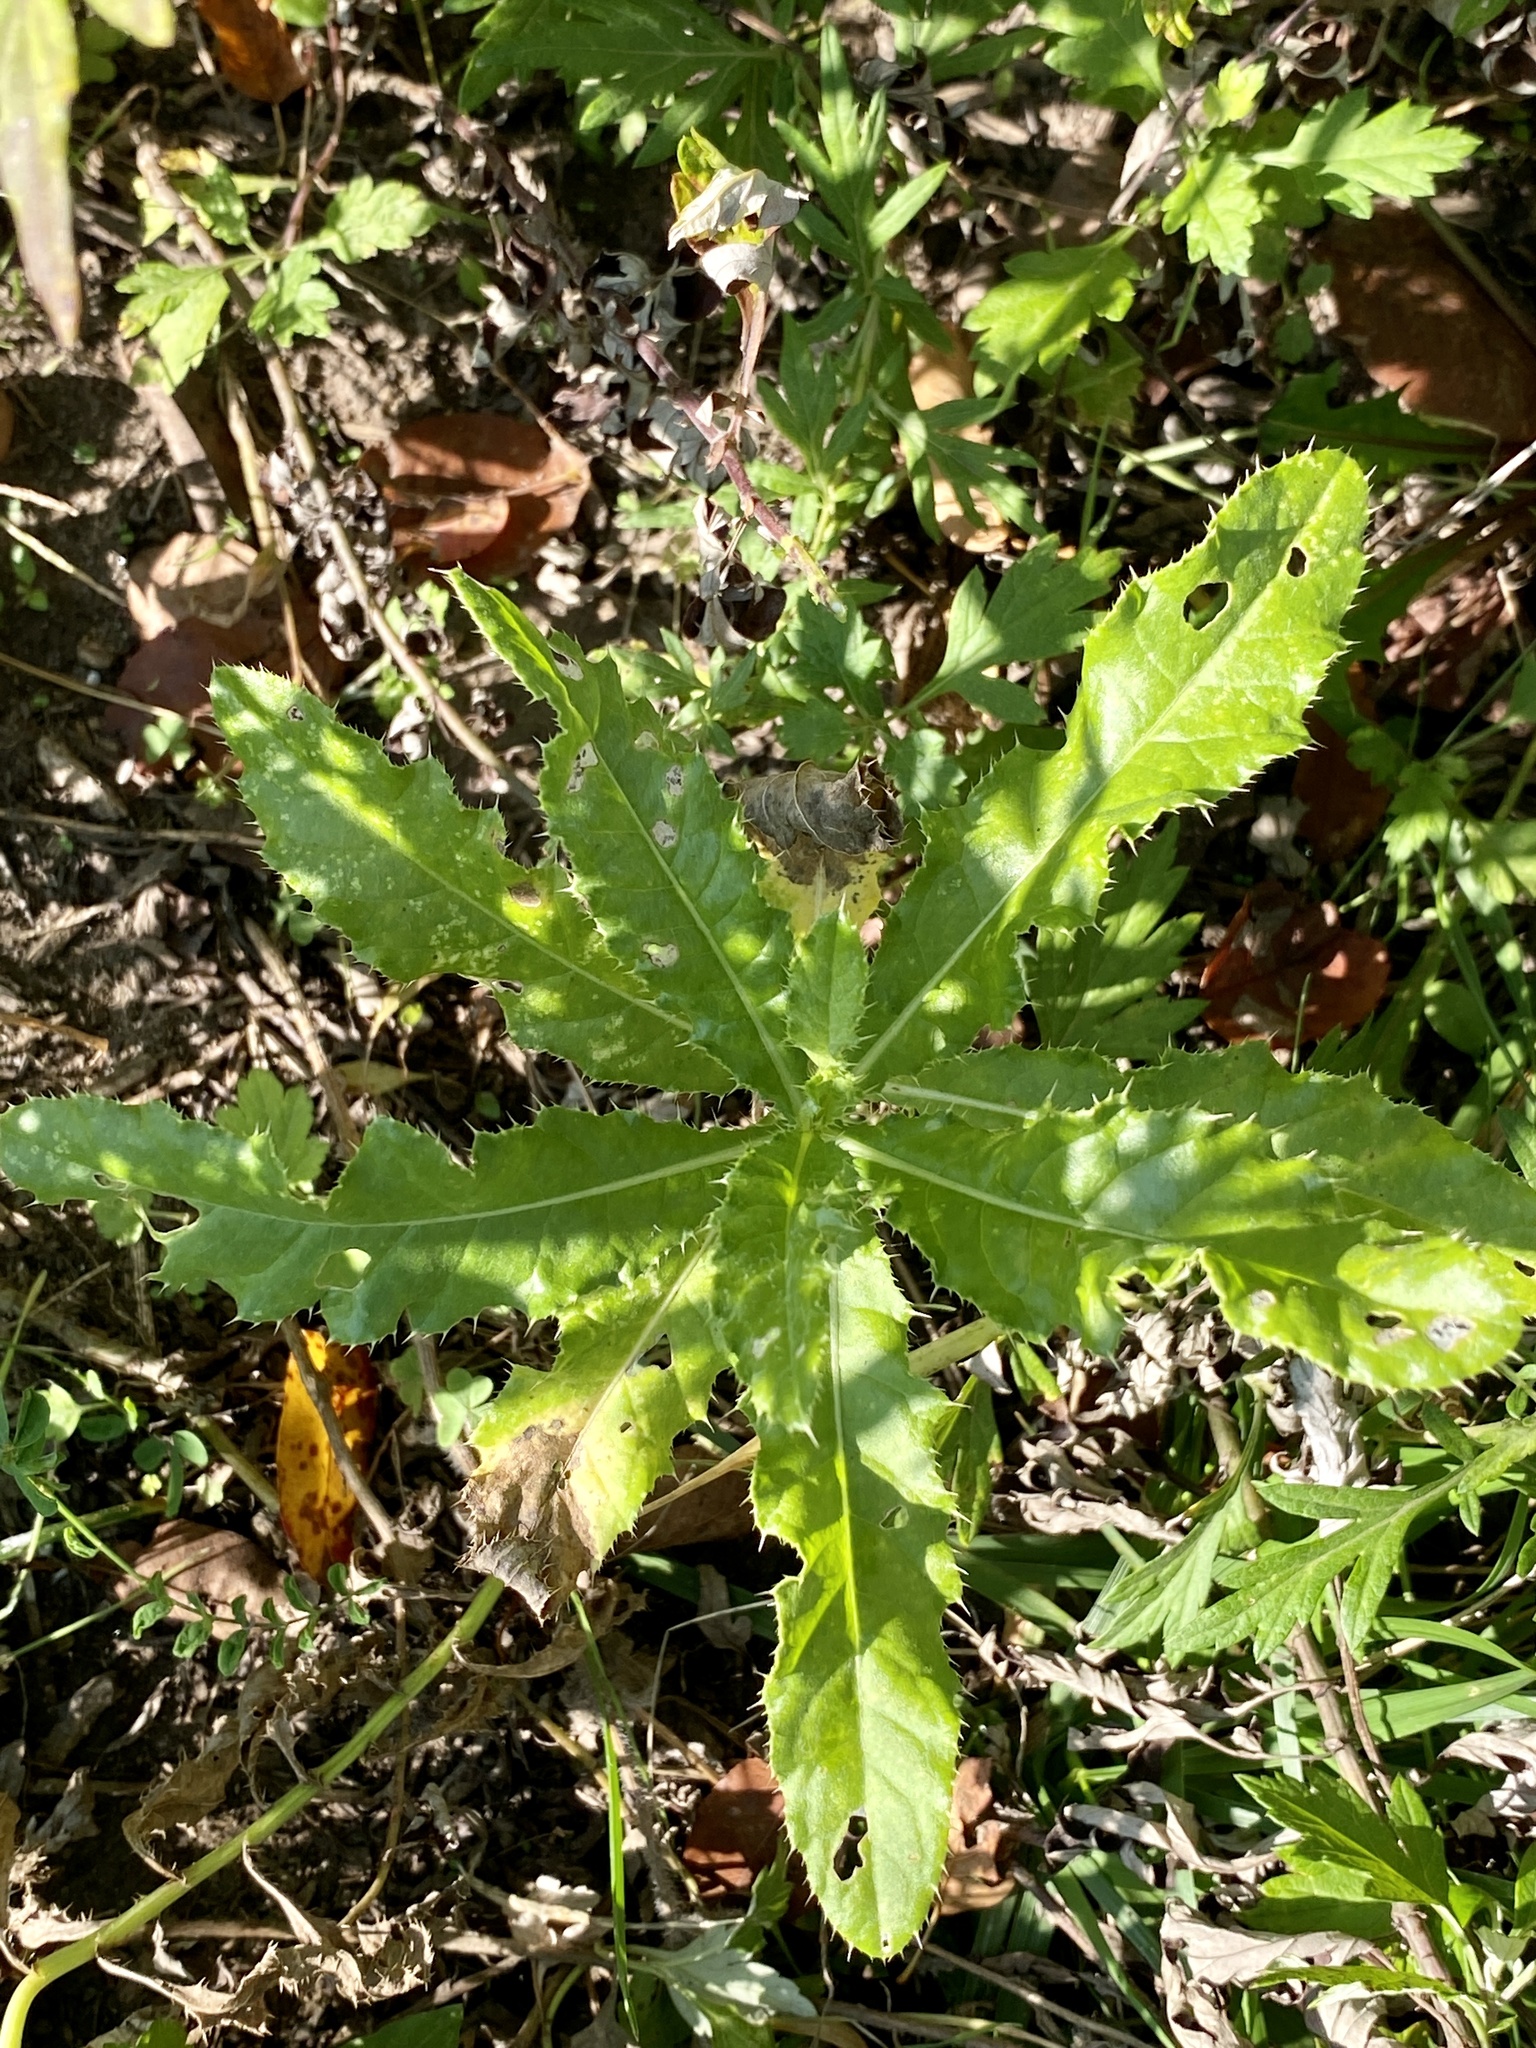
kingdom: Plantae
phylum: Tracheophyta
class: Magnoliopsida
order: Asterales
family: Asteraceae
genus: Cirsium
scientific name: Cirsium arvense
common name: Creeping thistle
